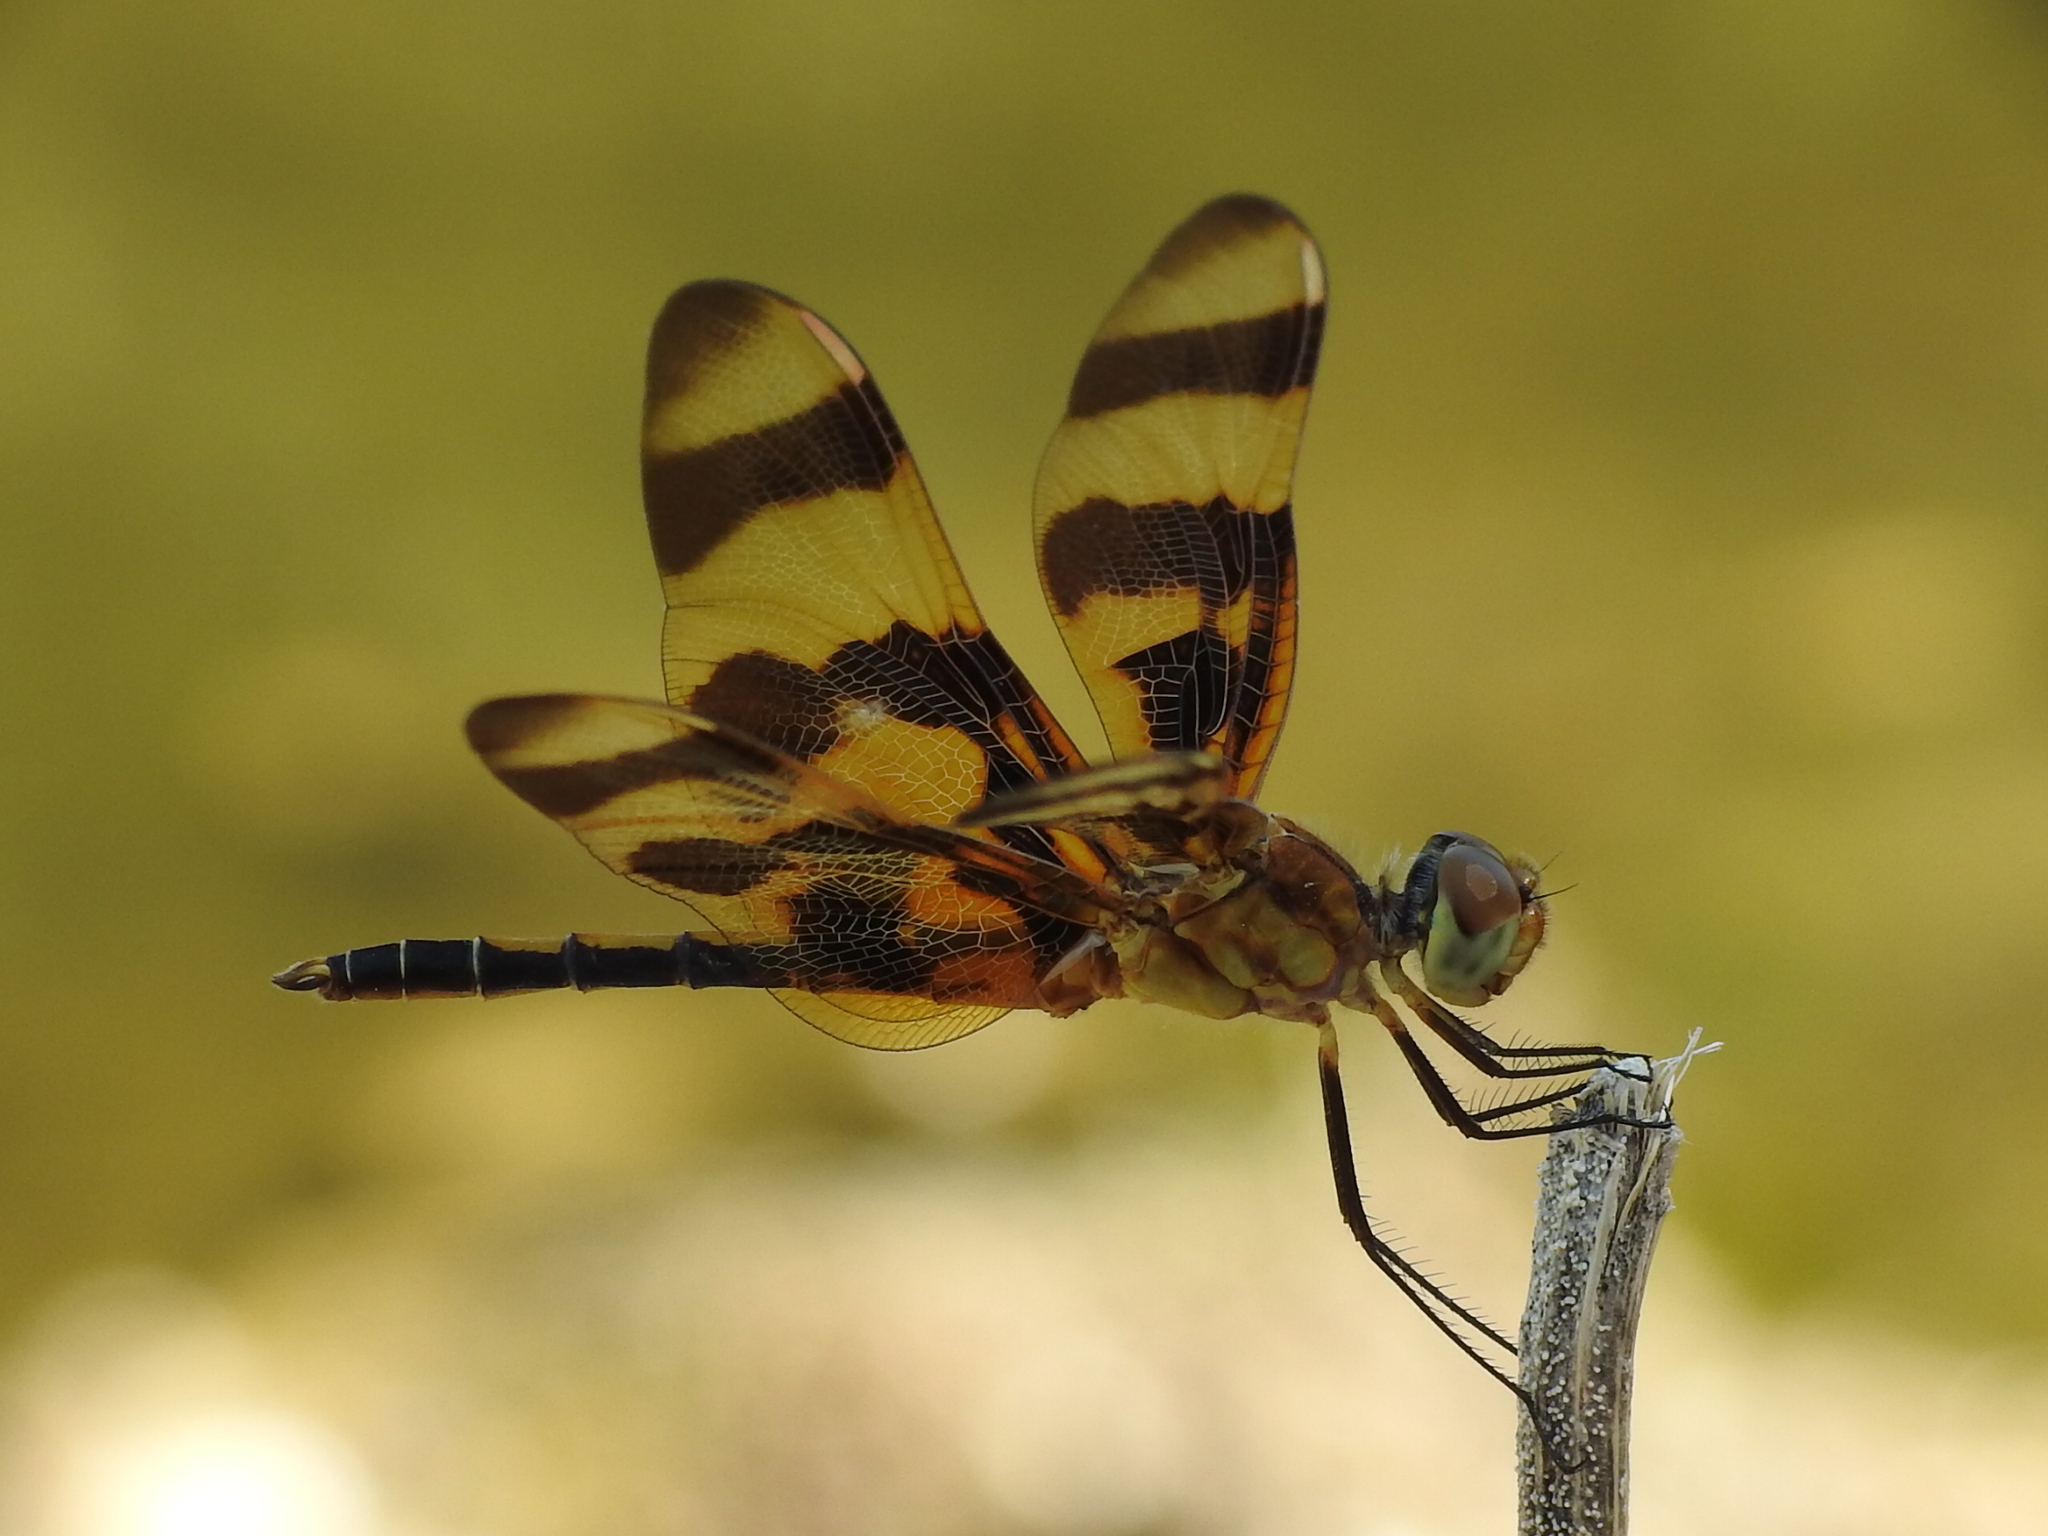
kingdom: Animalia
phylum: Arthropoda
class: Insecta
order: Odonata
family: Libellulidae
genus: Celithemis
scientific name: Celithemis eponina
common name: Halloween pennant
